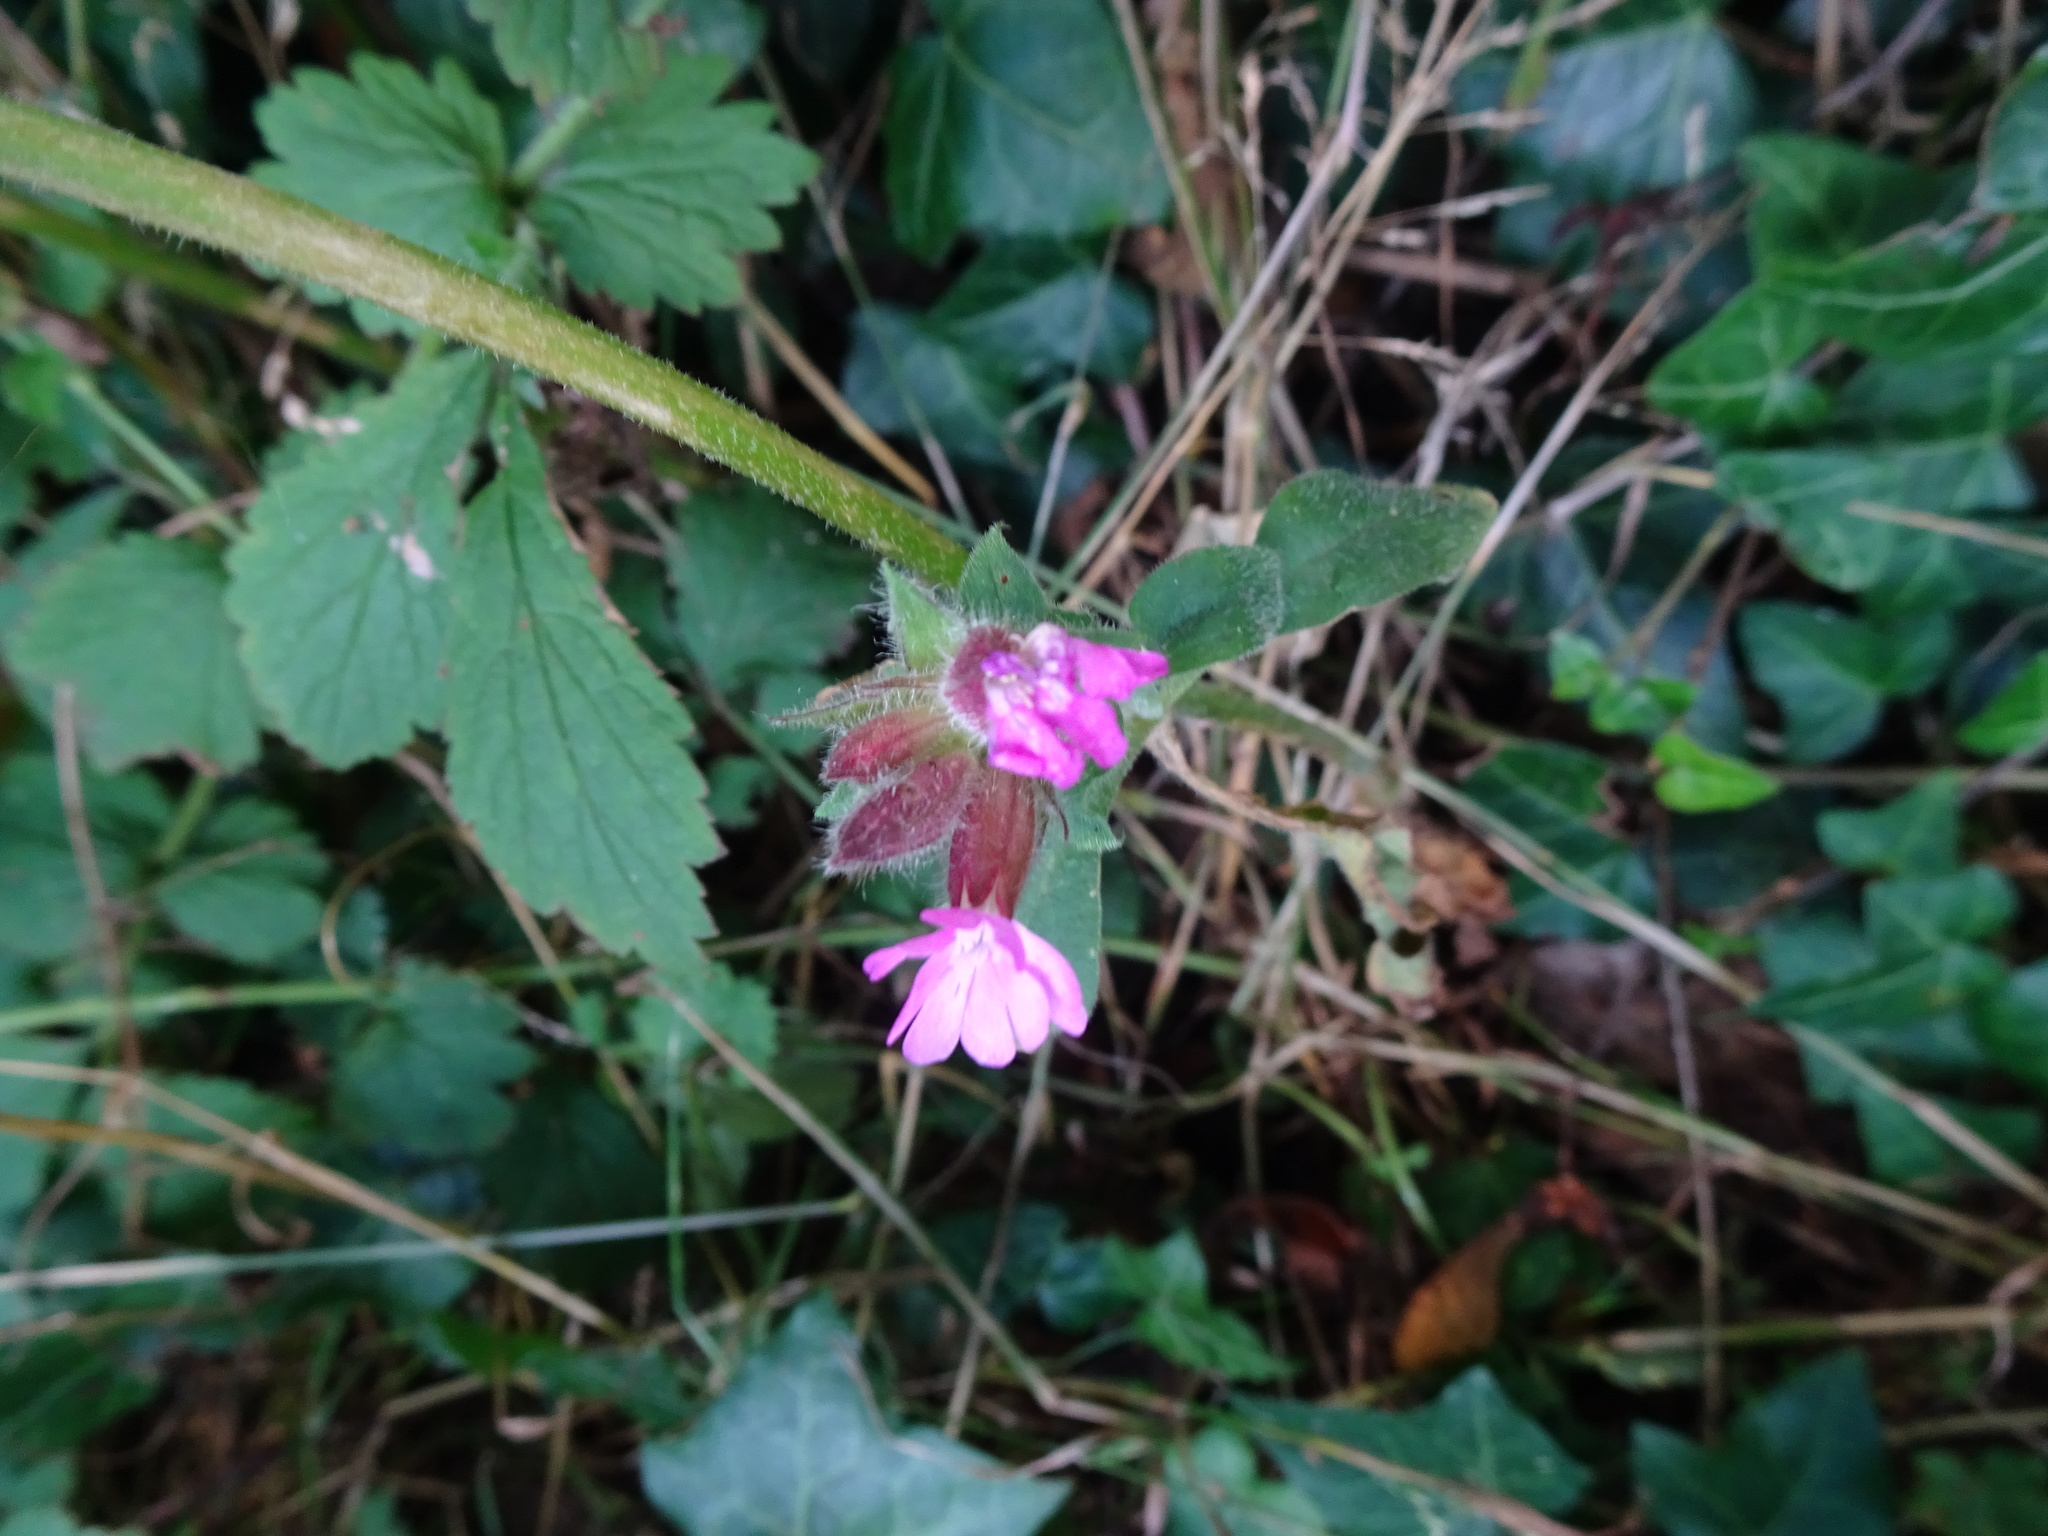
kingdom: Plantae
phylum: Tracheophyta
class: Magnoliopsida
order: Caryophyllales
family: Caryophyllaceae
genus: Silene
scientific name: Silene dioica
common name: Red campion
